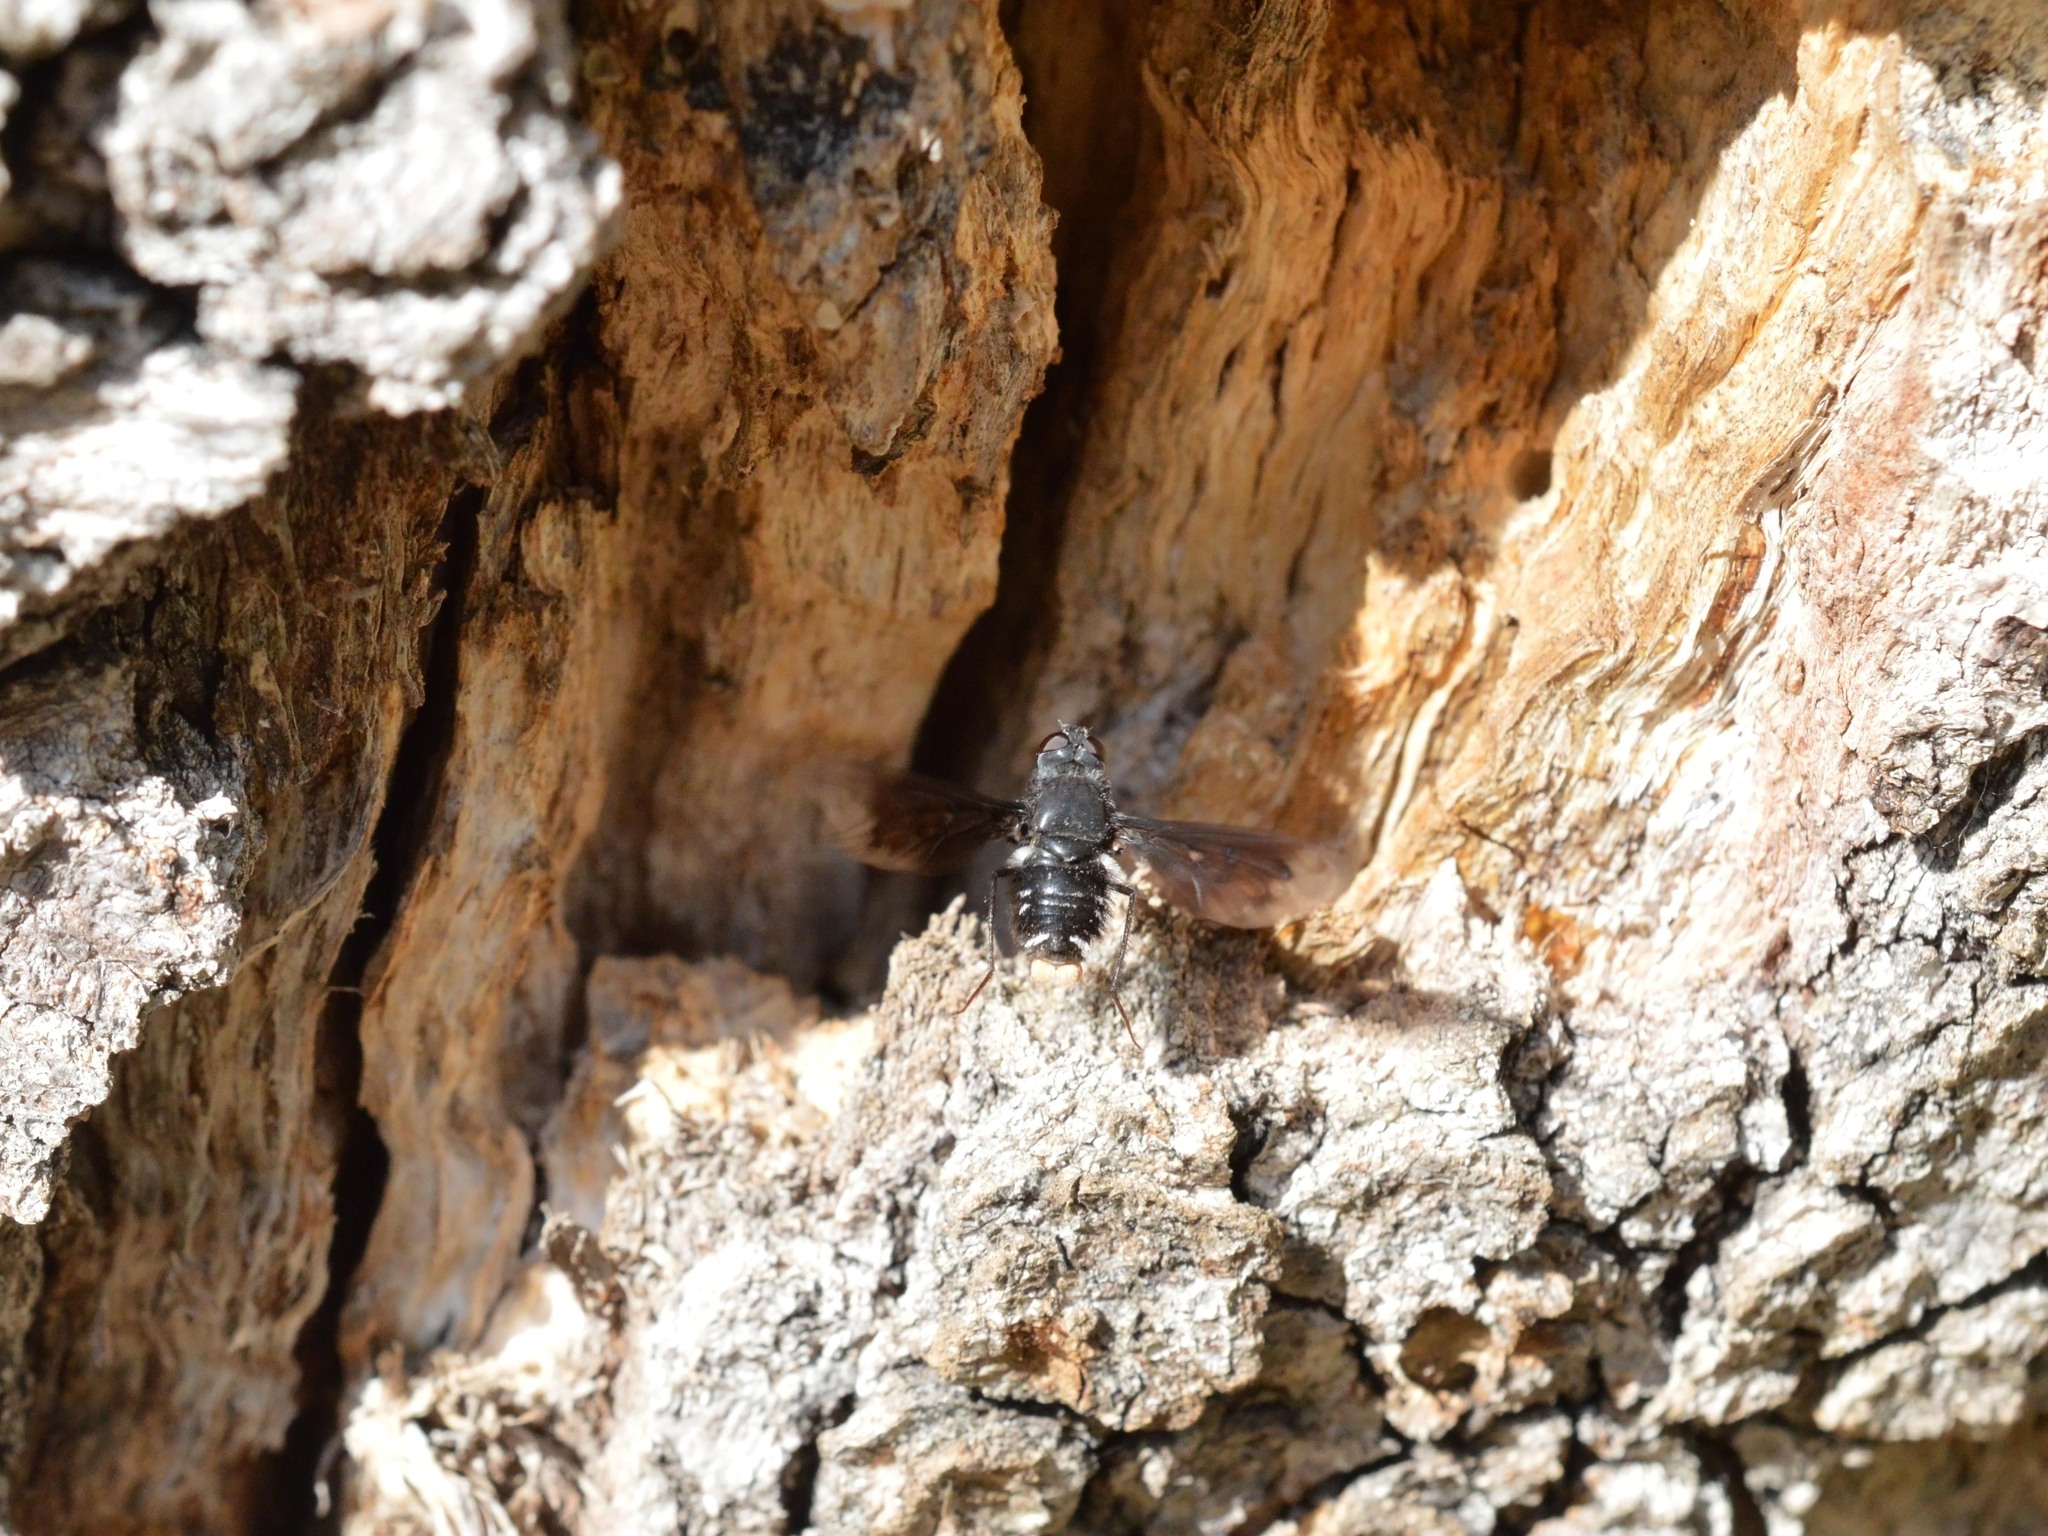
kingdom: Animalia
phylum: Arthropoda
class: Insecta
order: Diptera
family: Bombyliidae
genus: Anthrax
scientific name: Anthrax anthrax
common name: Anthracite bee-fly
